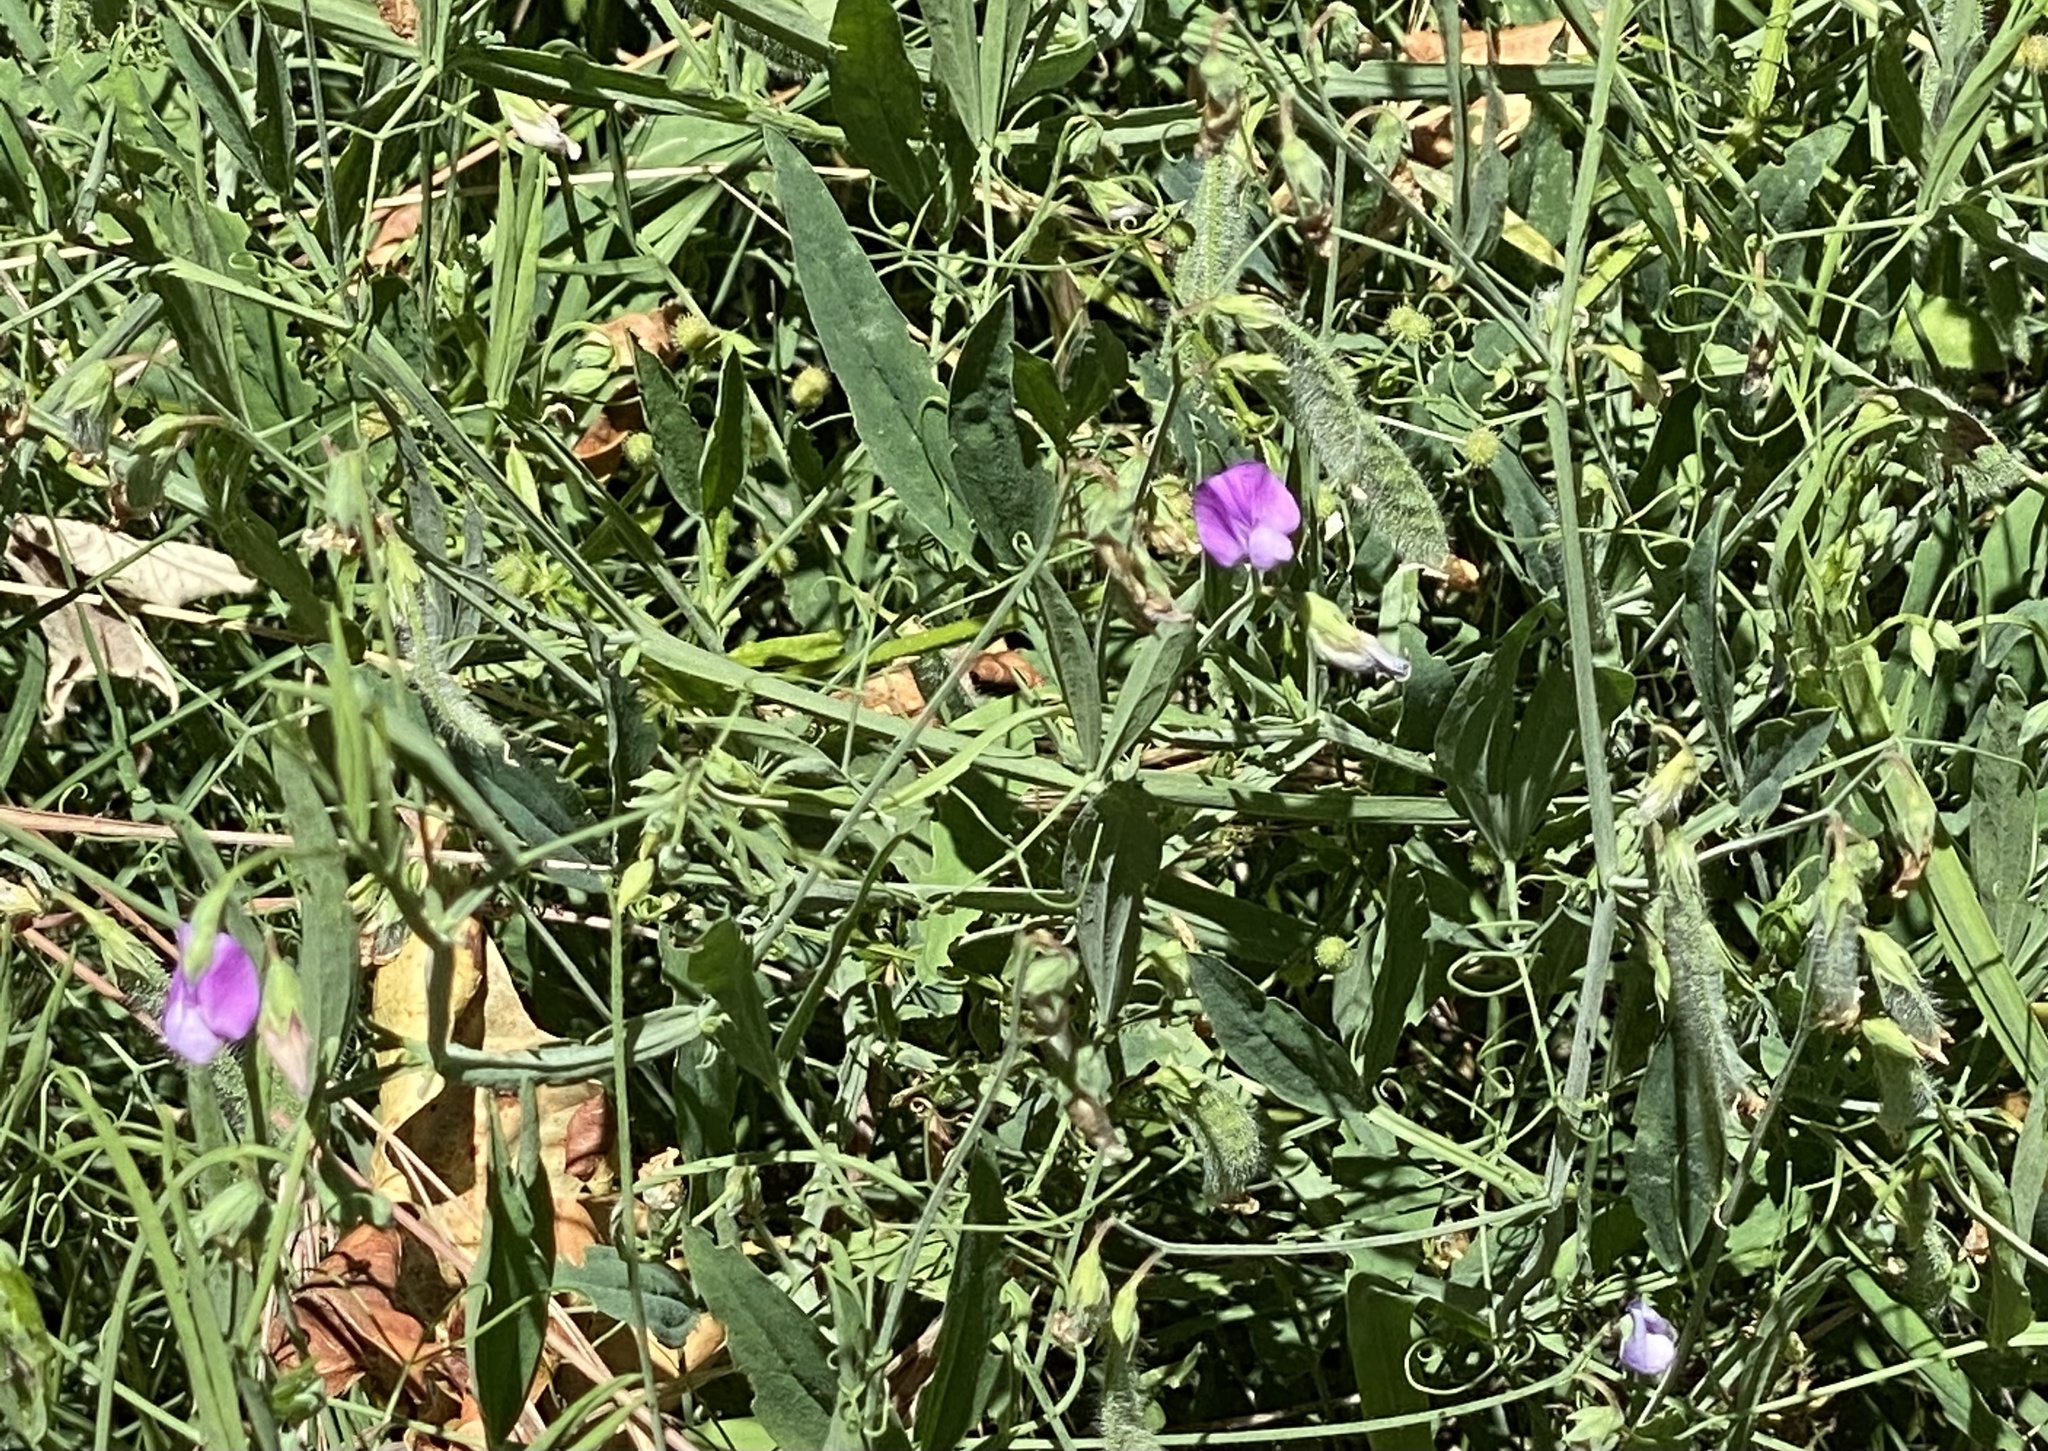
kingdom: Plantae
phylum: Tracheophyta
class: Magnoliopsida
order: Fabales
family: Fabaceae
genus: Lathyrus
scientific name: Lathyrus hirsutus
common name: Hairy vetchling
